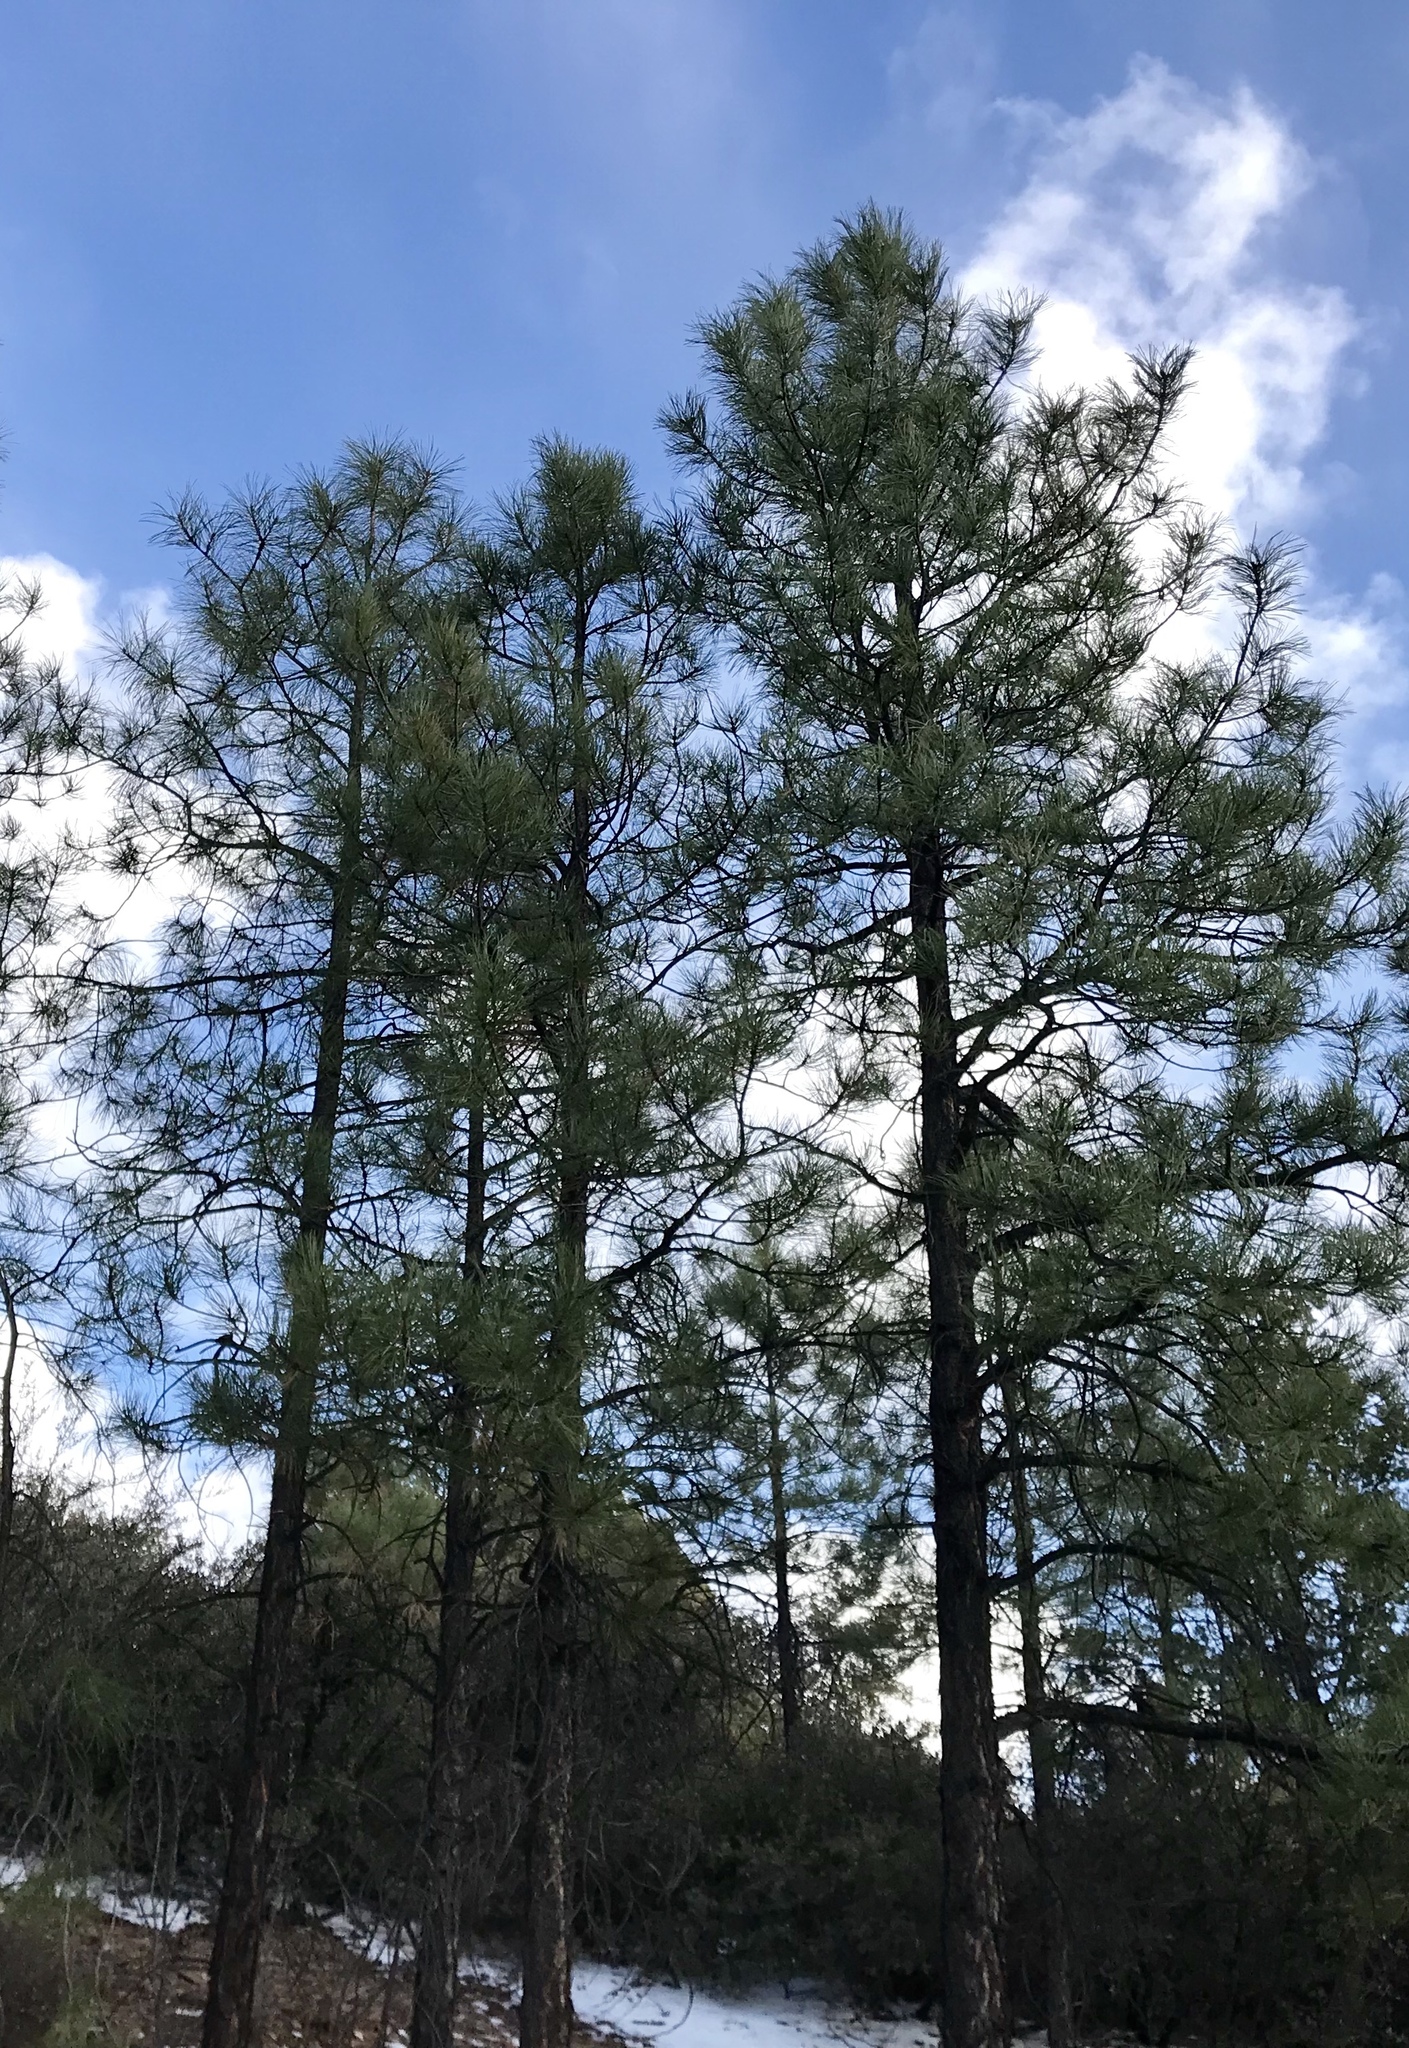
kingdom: Plantae
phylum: Tracheophyta
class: Pinopsida
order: Pinales
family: Pinaceae
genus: Pinus
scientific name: Pinus ponderosa
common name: Western yellow-pine
